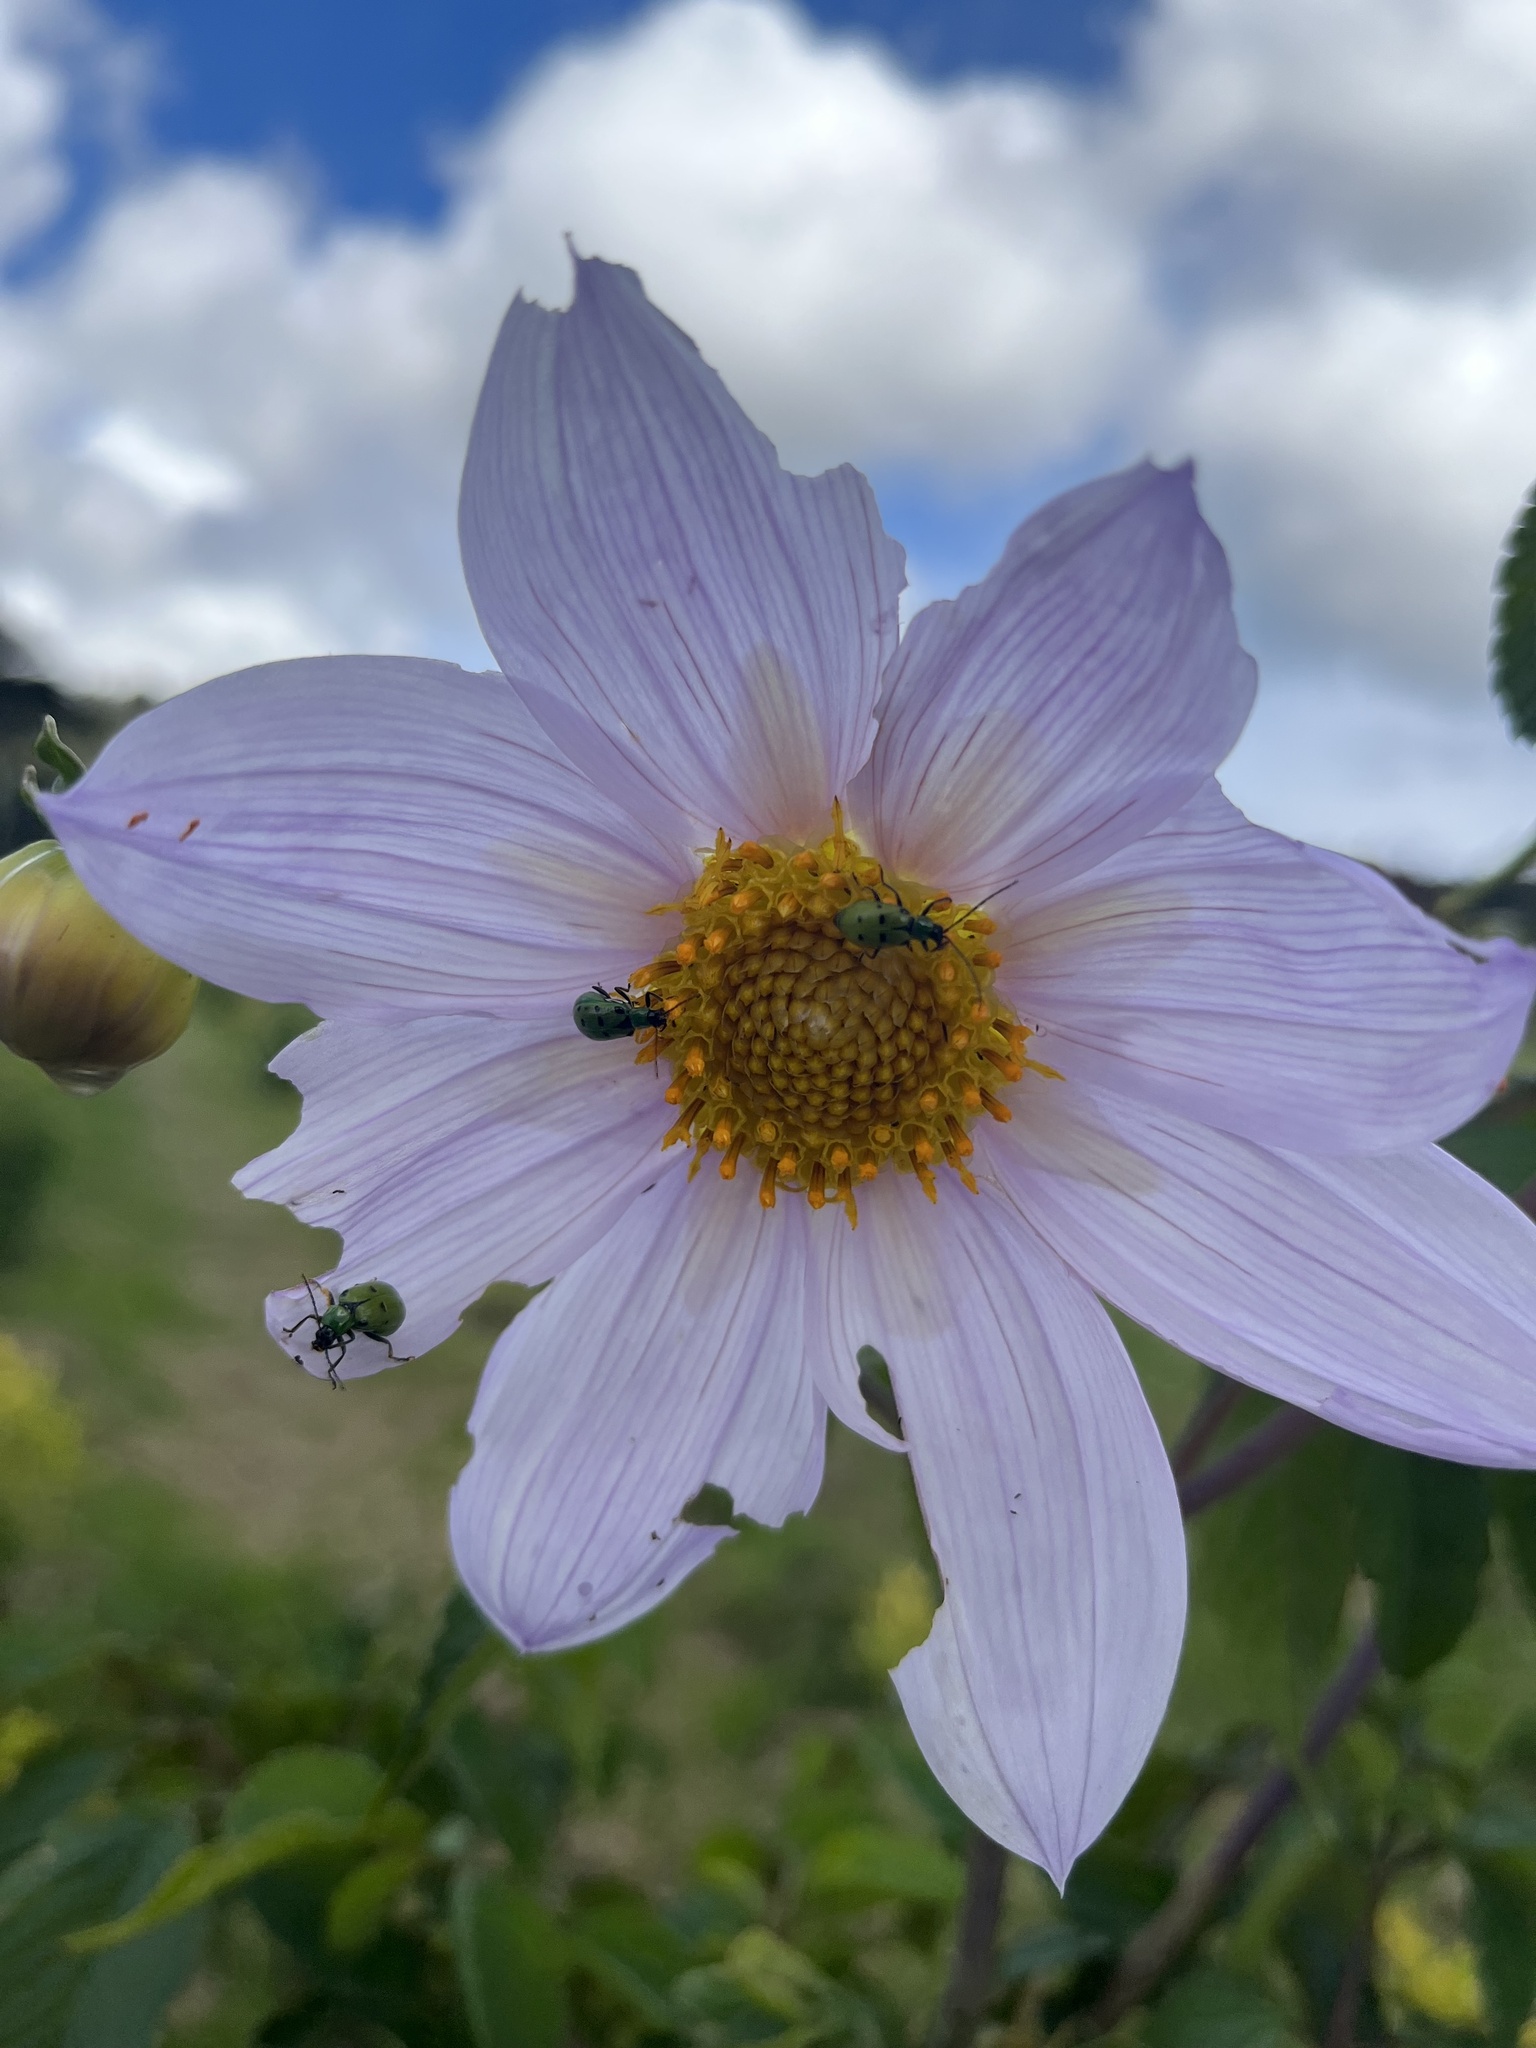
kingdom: Plantae
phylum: Tracheophyta
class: Magnoliopsida
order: Asterales
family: Asteraceae
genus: Dahlia
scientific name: Dahlia imperialis
